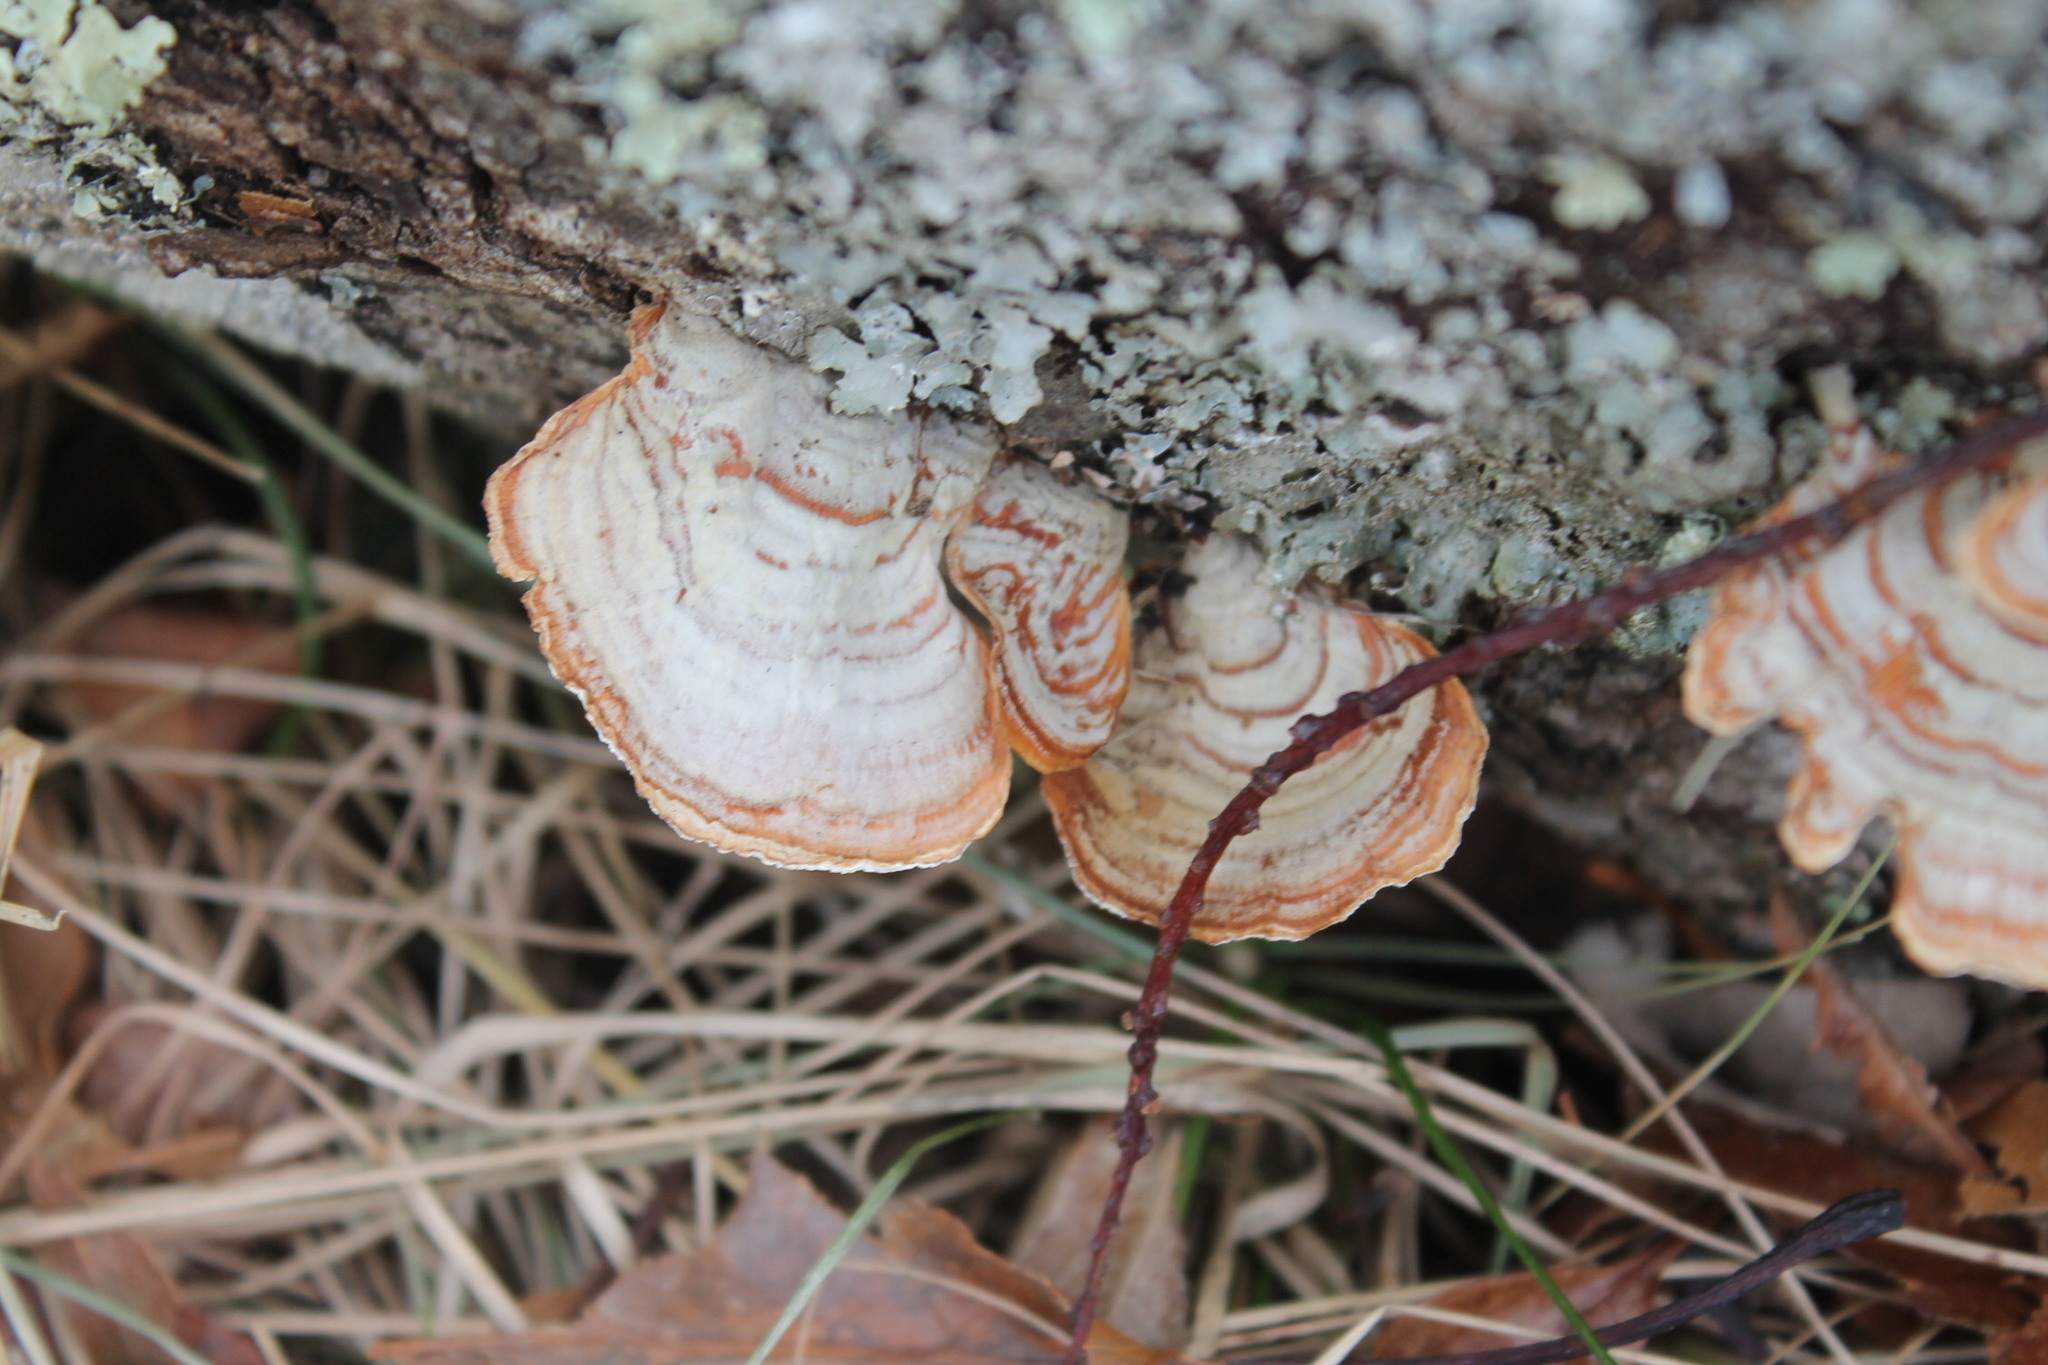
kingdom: Fungi
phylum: Basidiomycota
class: Agaricomycetes
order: Russulales
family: Stereaceae
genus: Stereum
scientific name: Stereum lobatum
